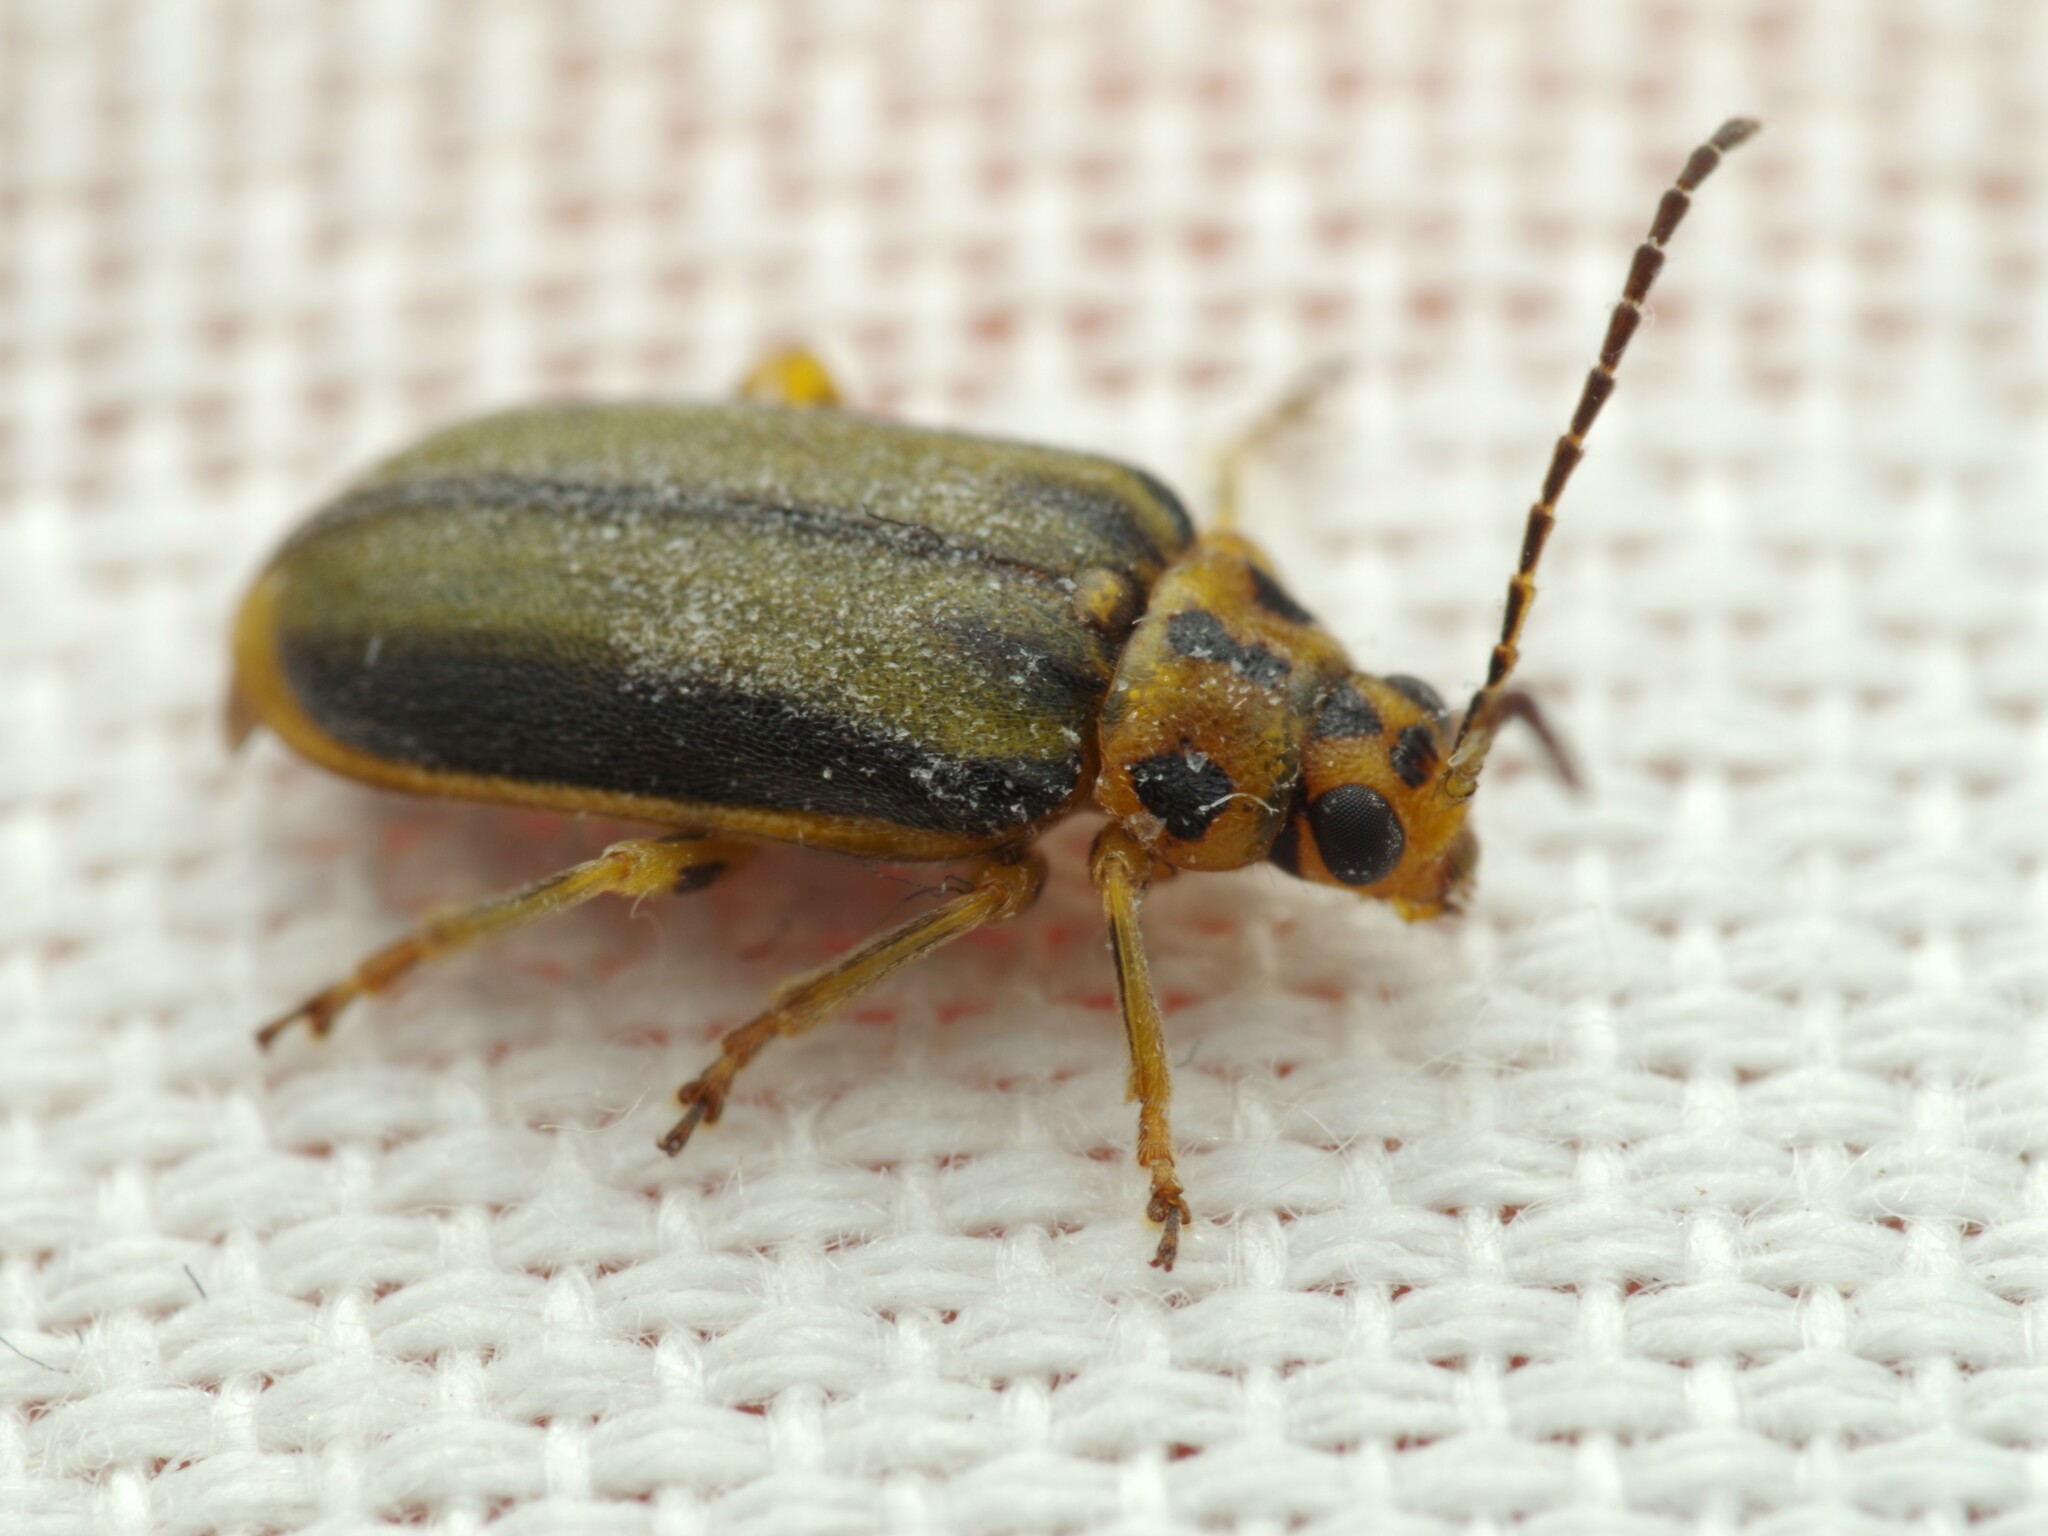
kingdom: Animalia
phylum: Arthropoda
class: Insecta
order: Coleoptera
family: Chrysomelidae
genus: Xanthogaleruca
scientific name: Xanthogaleruca luteola
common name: Elm leaf beetle
